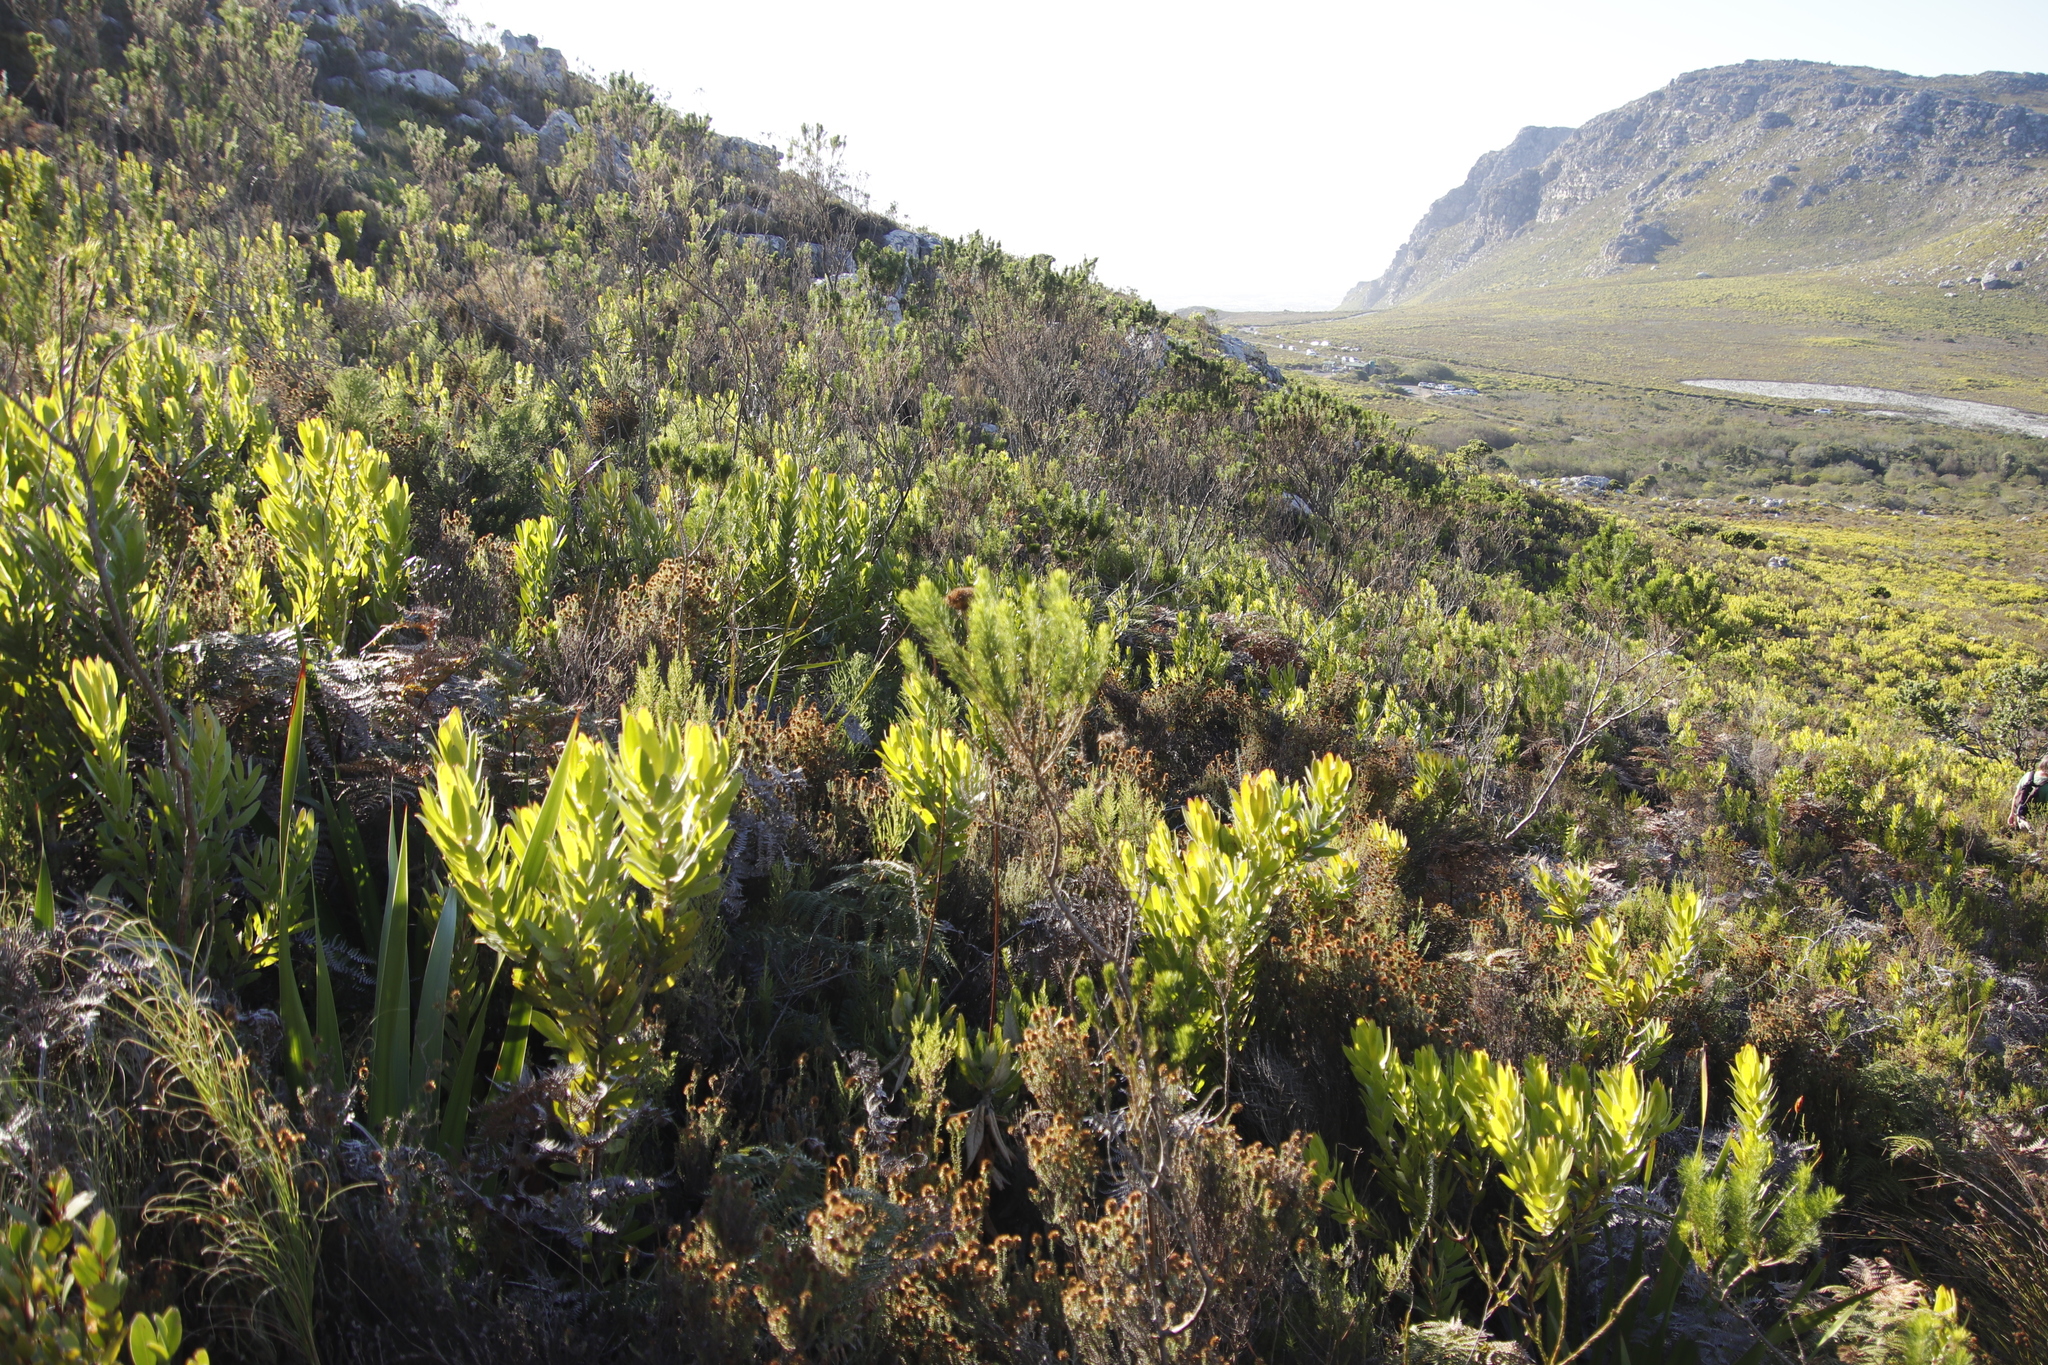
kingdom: Plantae
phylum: Tracheophyta
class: Magnoliopsida
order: Proteales
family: Proteaceae
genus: Leucadendron
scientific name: Leucadendron laureolum
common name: Golden sunshinebush
